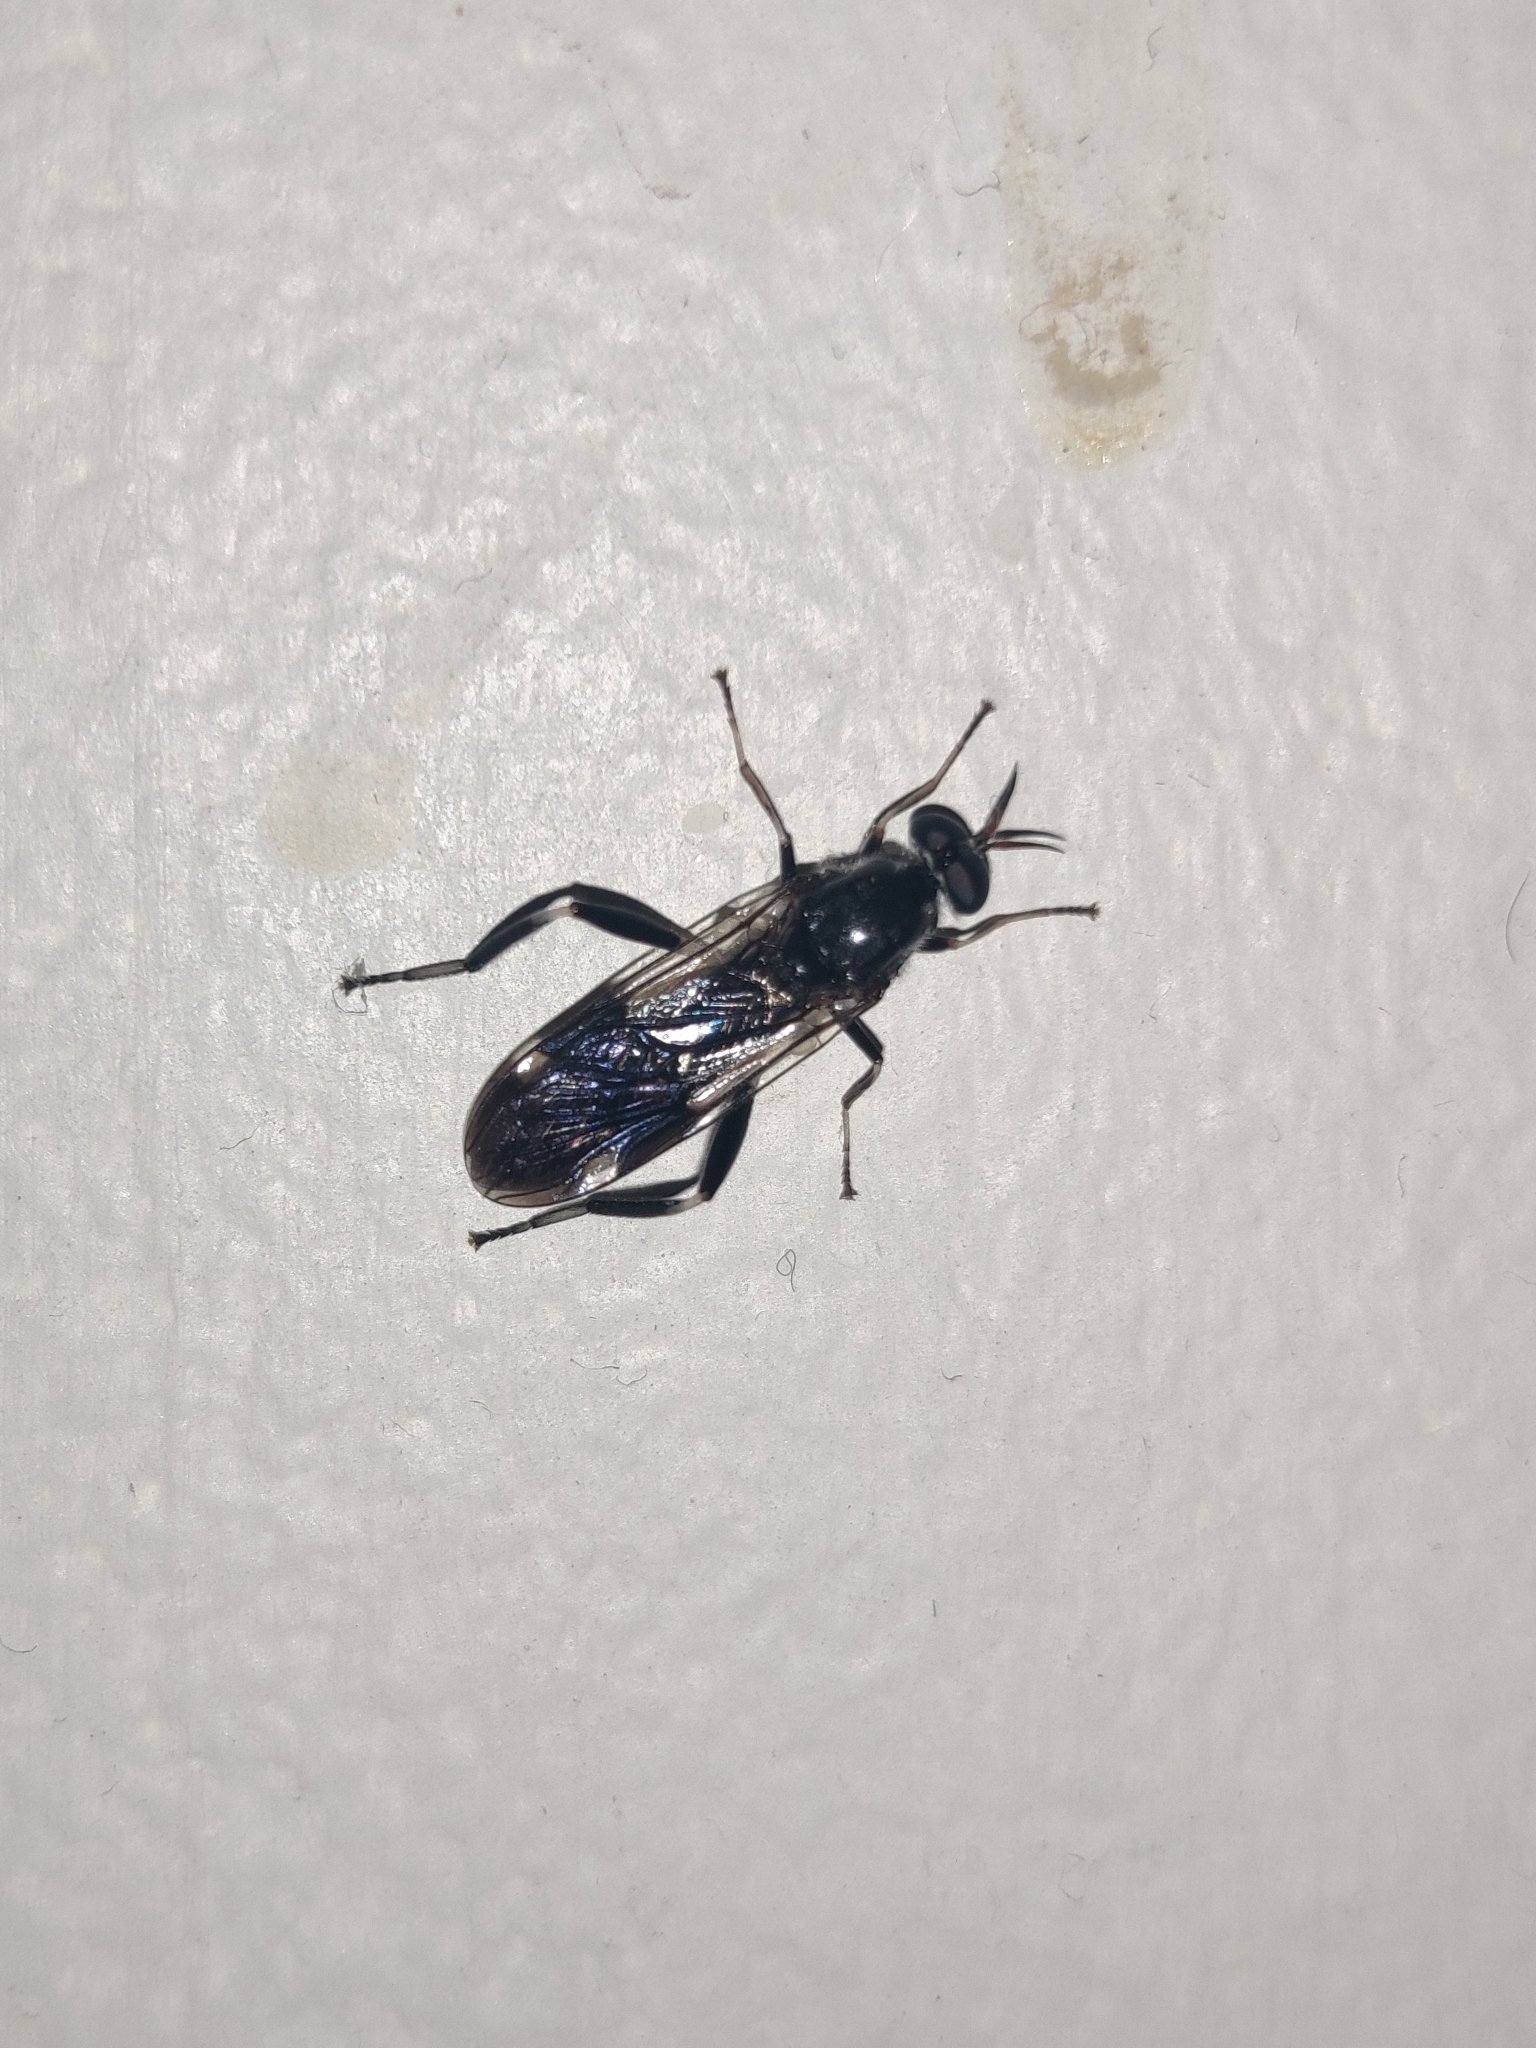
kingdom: Animalia
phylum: Arthropoda
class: Insecta
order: Diptera
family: Stratiomyidae
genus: Exaireta
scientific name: Exaireta spinigera
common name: Blue soldier fly
